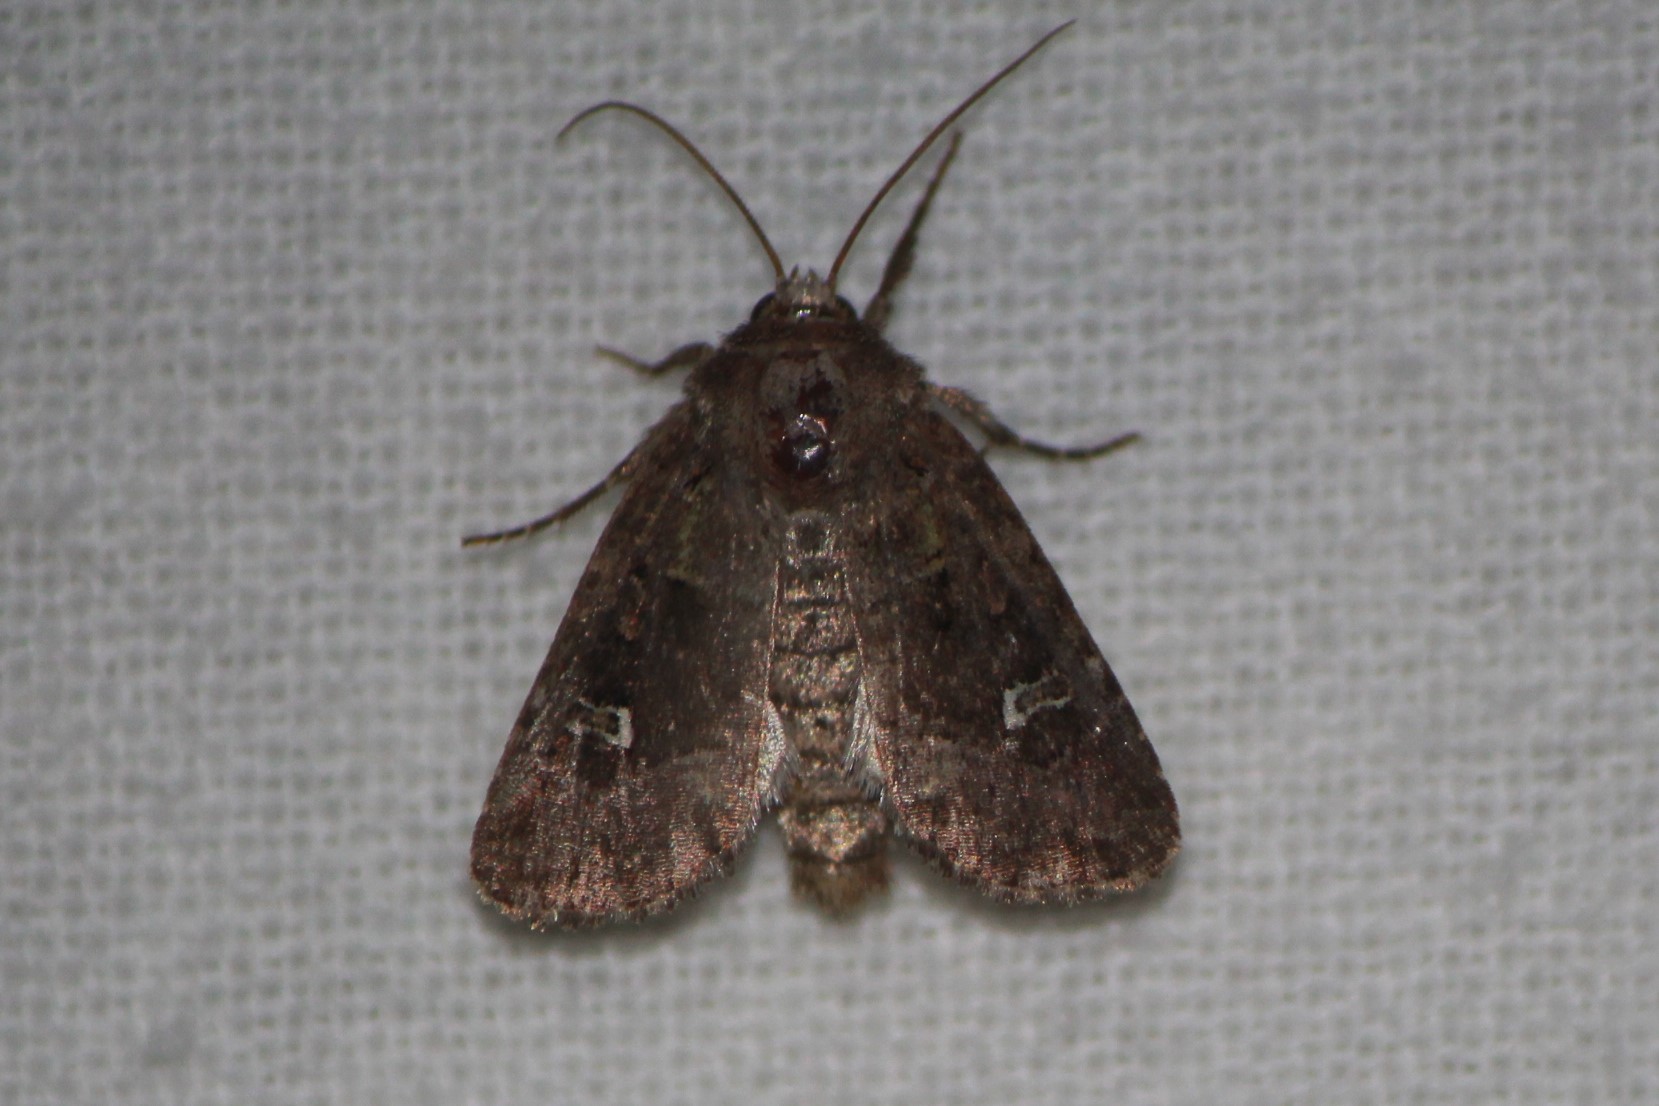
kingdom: Animalia
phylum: Arthropoda
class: Insecta
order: Lepidoptera
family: Noctuidae
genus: Lacinipolia
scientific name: Lacinipolia renigera
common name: Kidney-spotted minor
